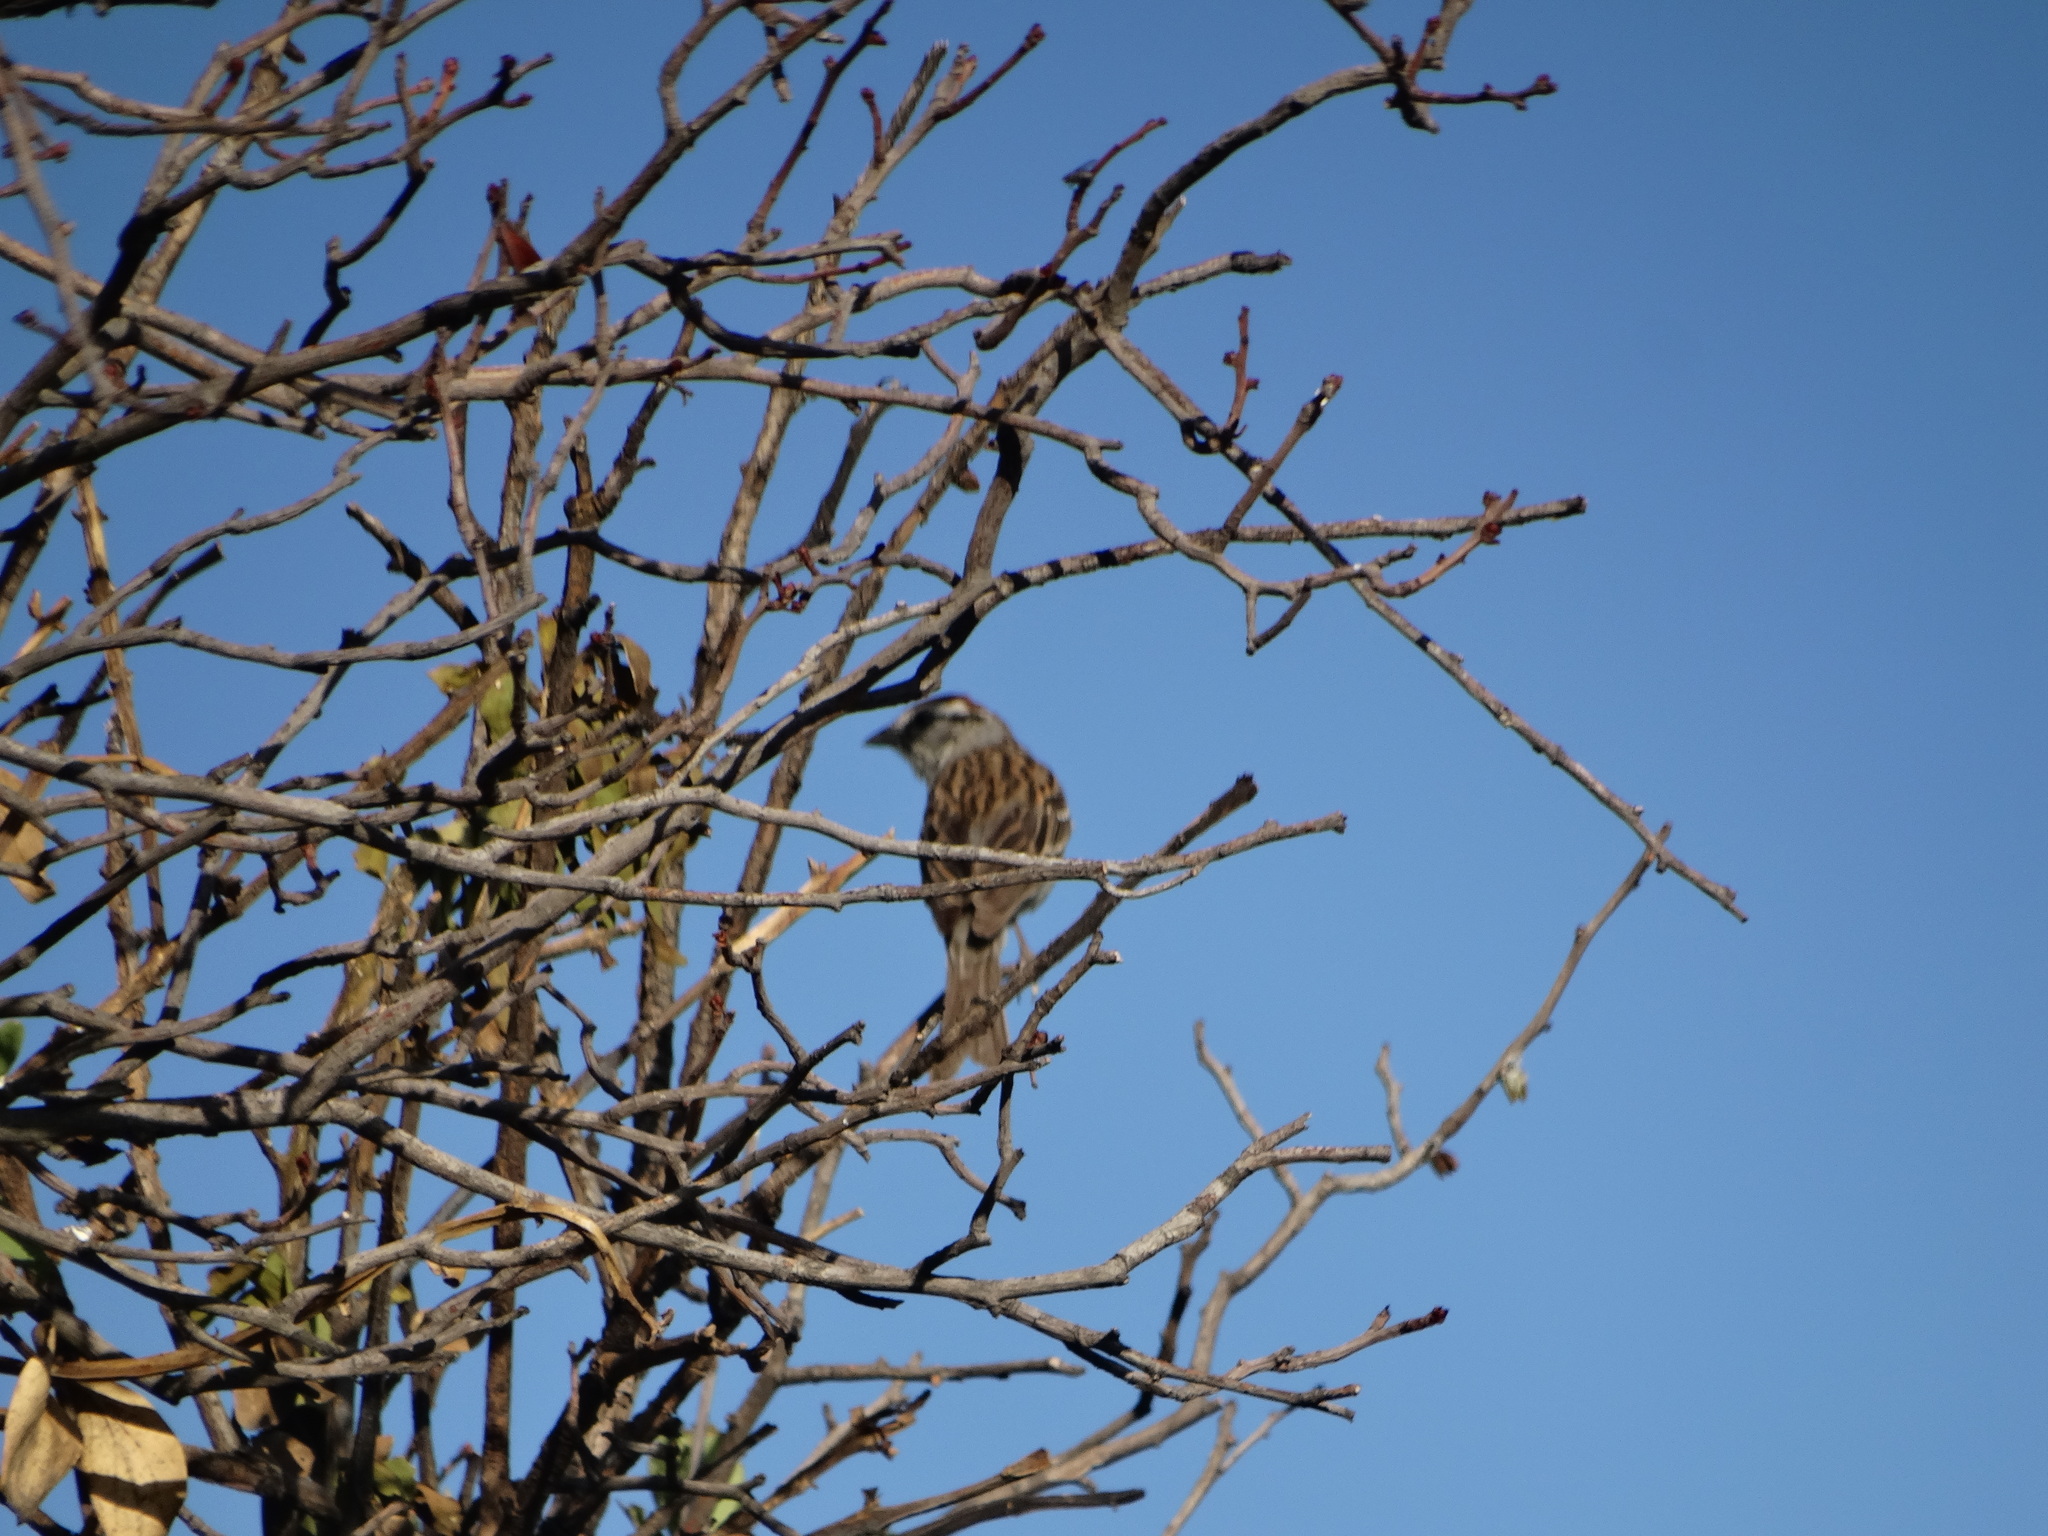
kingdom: Animalia
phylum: Chordata
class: Aves
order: Passeriformes
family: Passerellidae
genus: Spizella
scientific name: Spizella passerina
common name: Chipping sparrow
